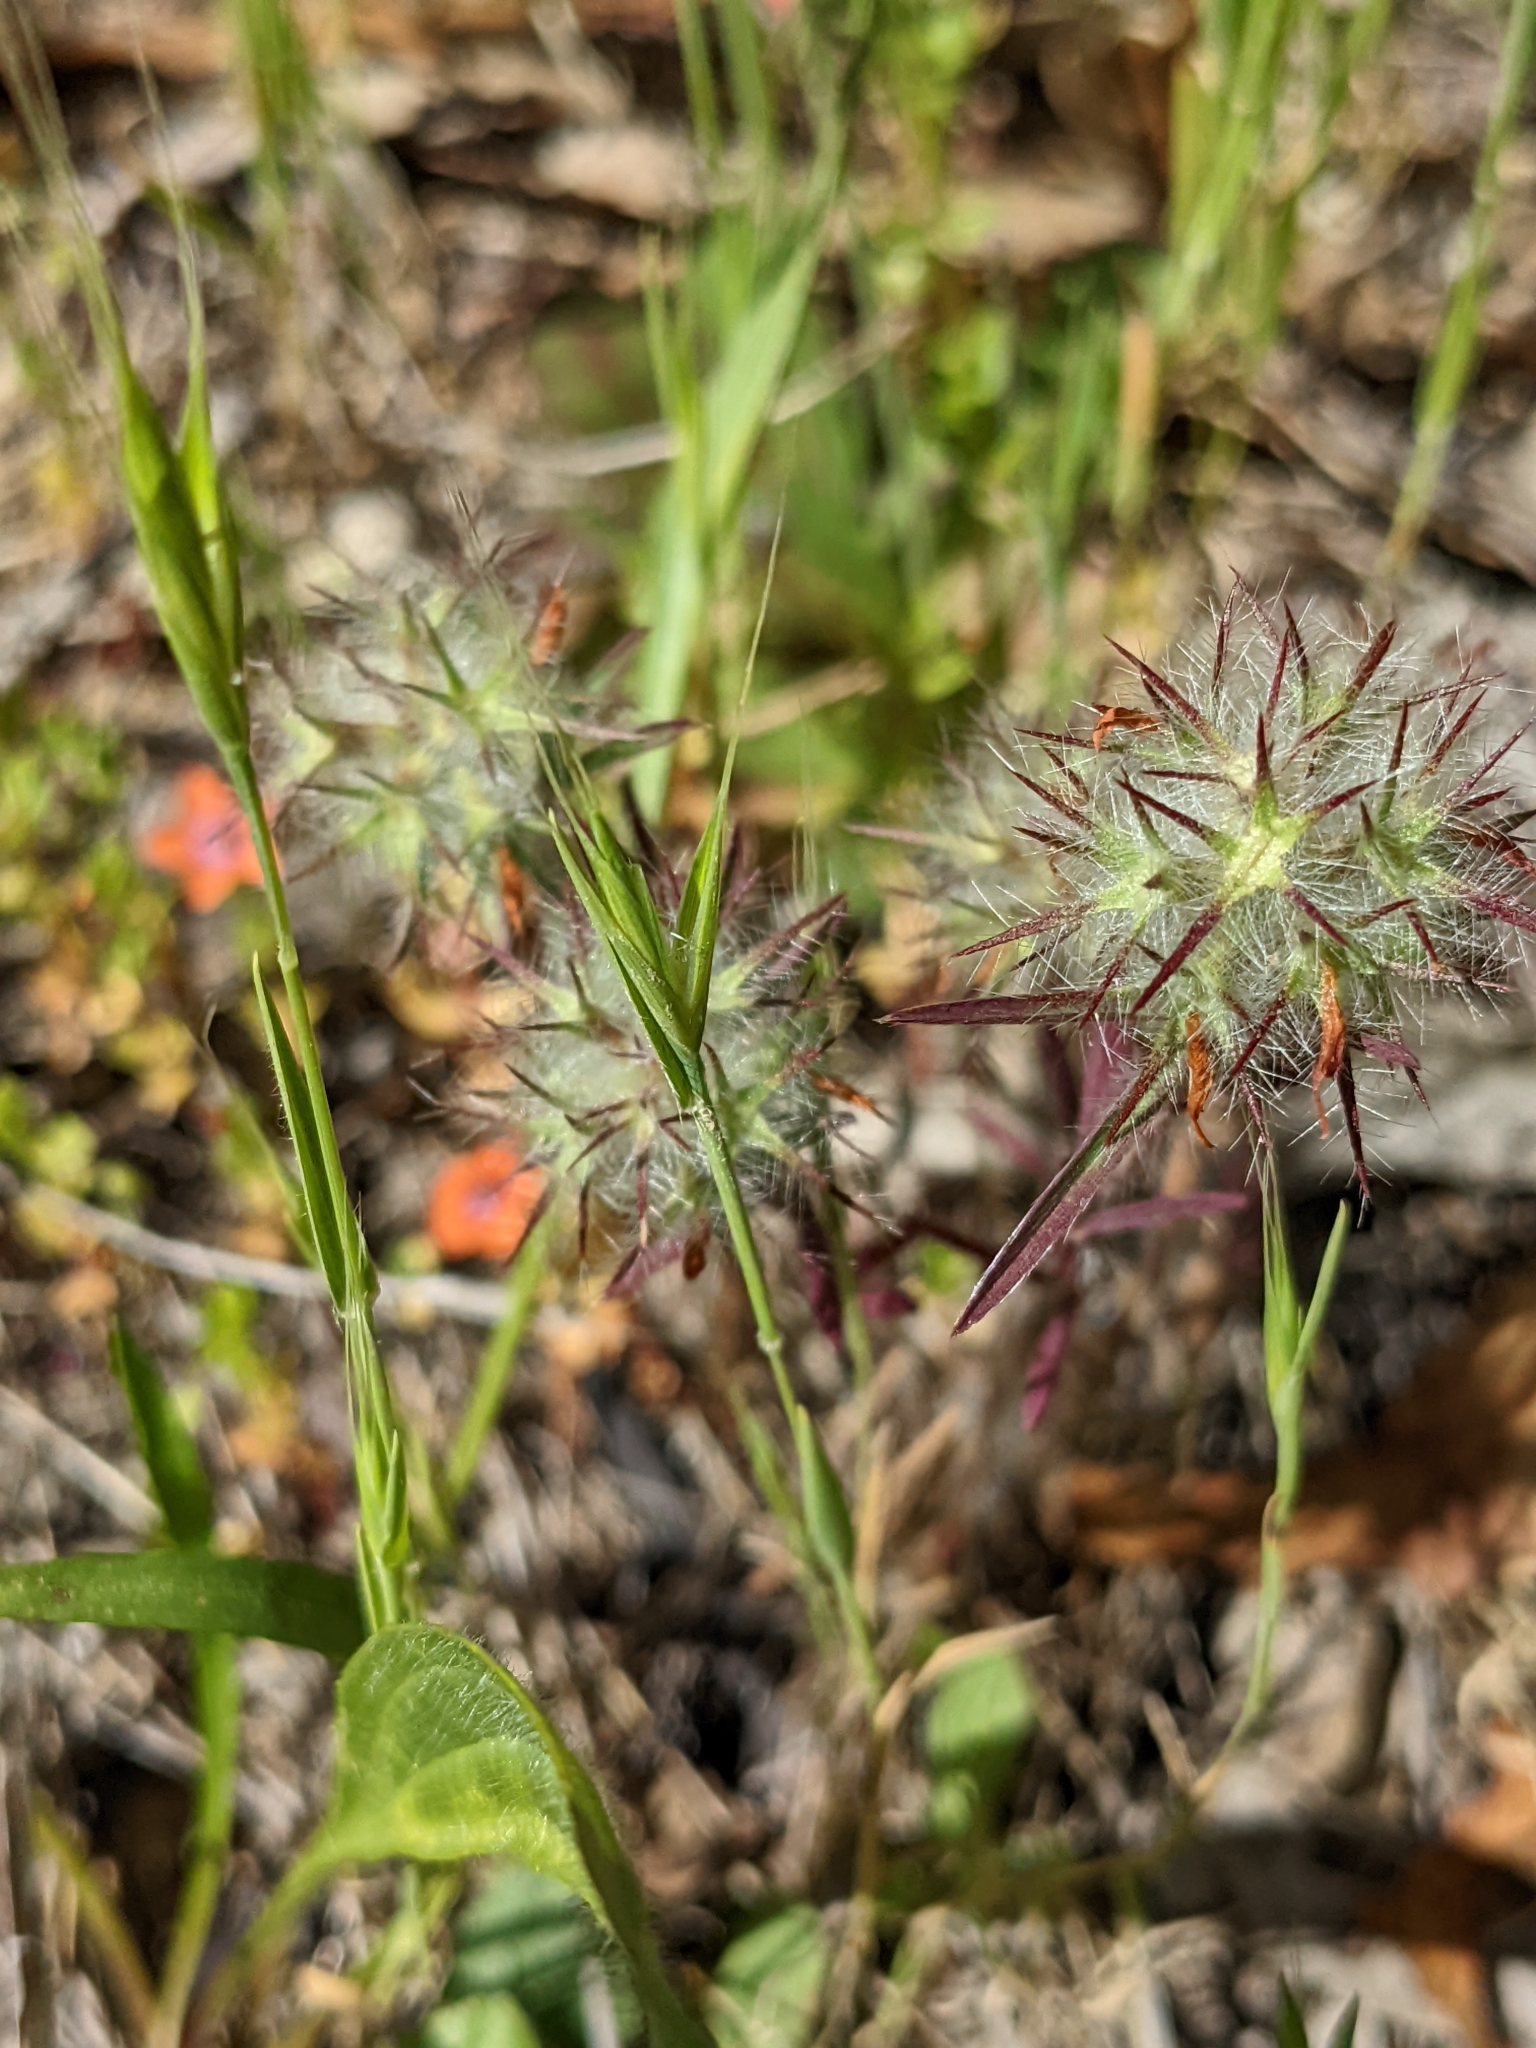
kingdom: Plantae
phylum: Tracheophyta
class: Magnoliopsida
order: Fabales
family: Fabaceae
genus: Trifolium
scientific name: Trifolium angustifolium
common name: Narrow clover
